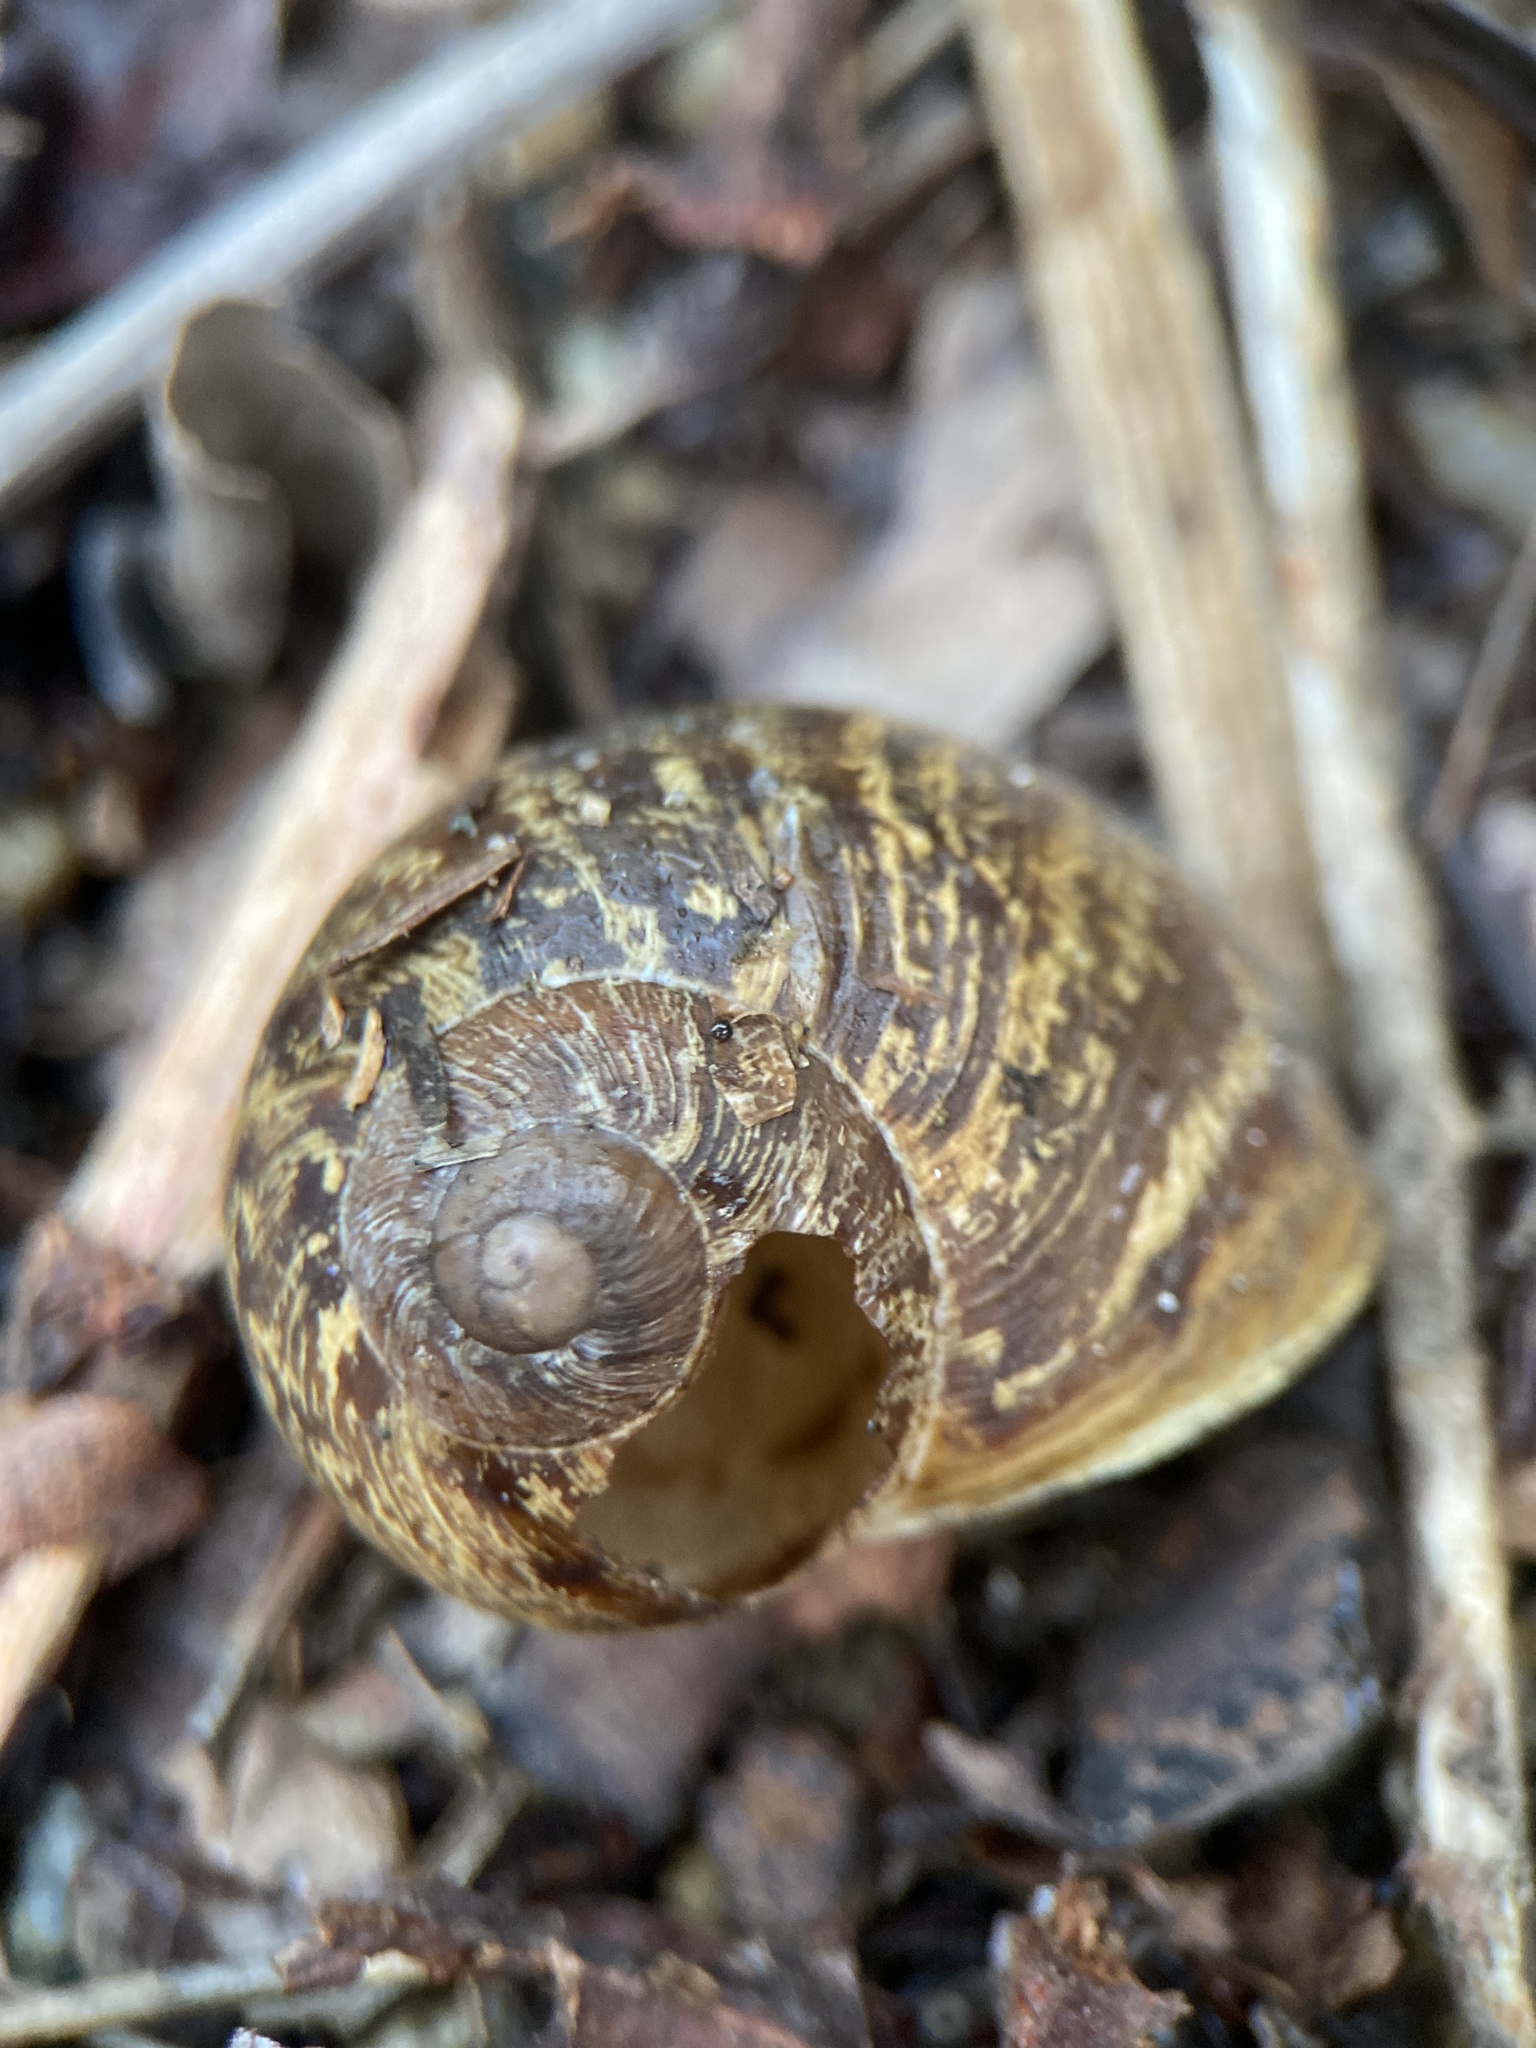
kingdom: Animalia
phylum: Mollusca
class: Gastropoda
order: Stylommatophora
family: Helicidae
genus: Cornu
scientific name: Cornu aspersum
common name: Brown garden snail
